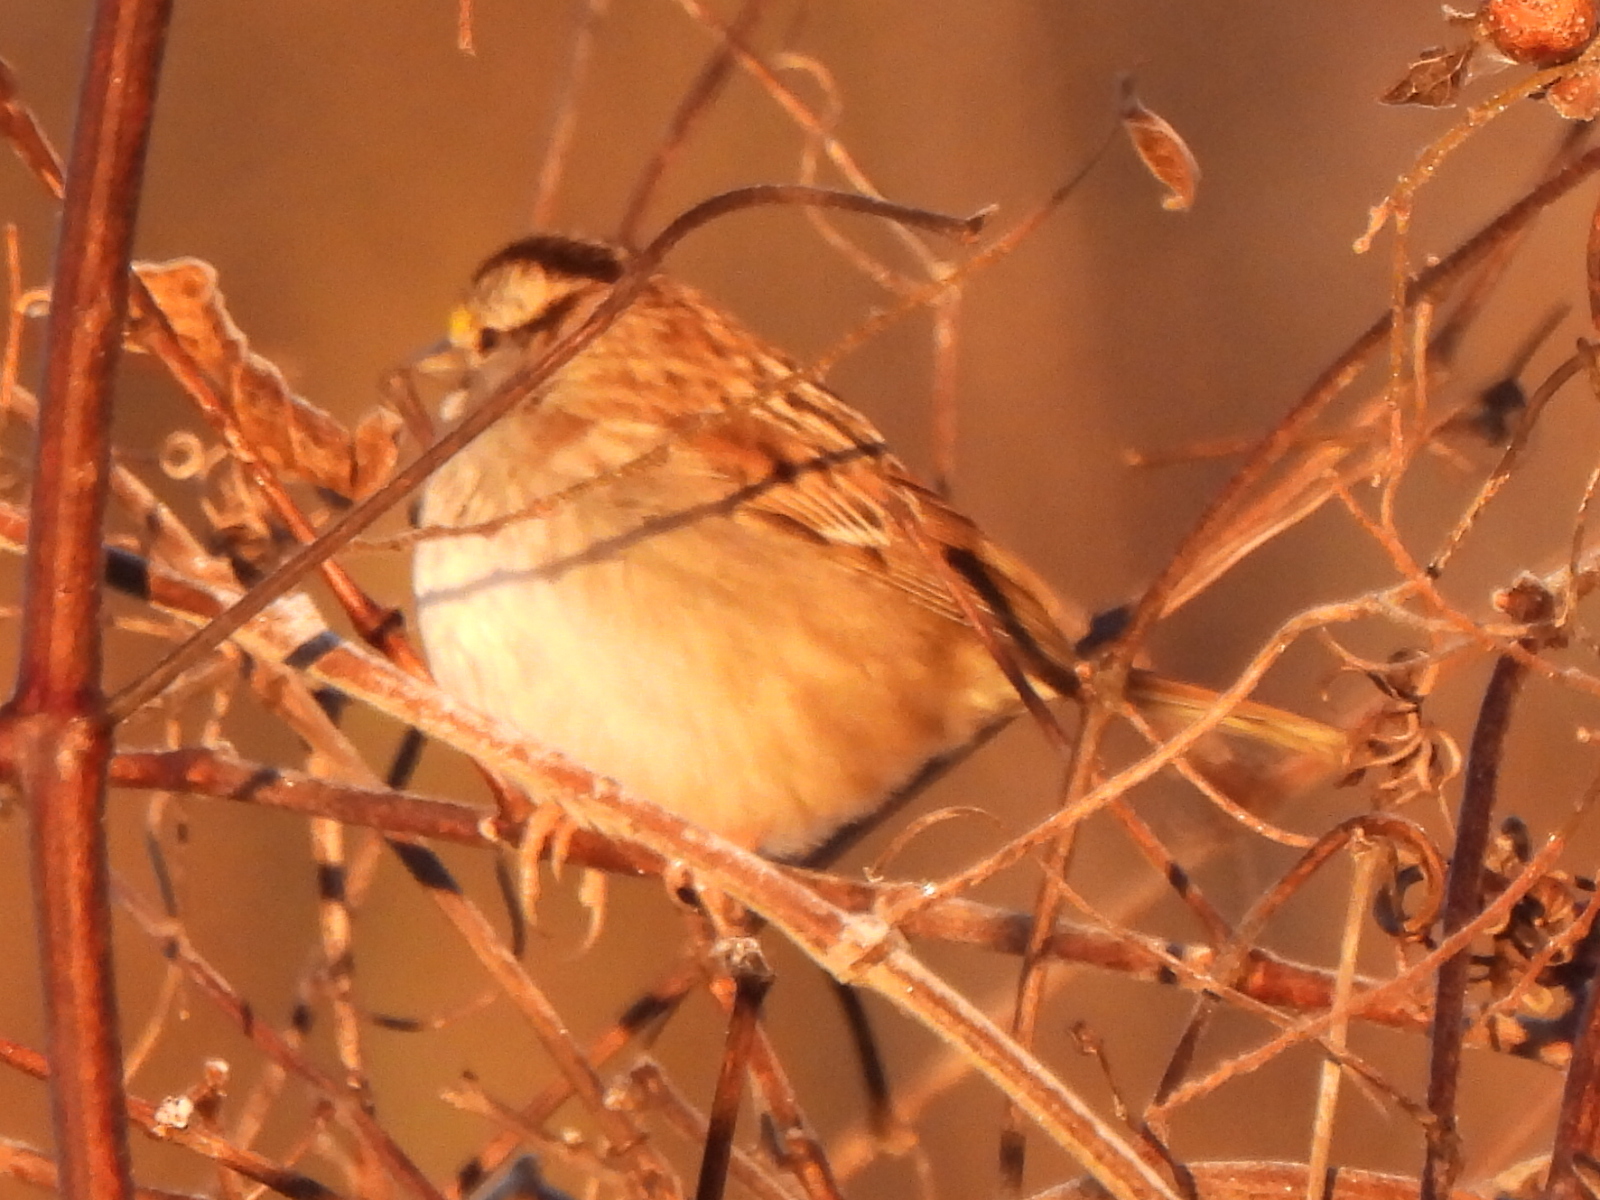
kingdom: Animalia
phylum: Chordata
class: Aves
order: Passeriformes
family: Passerellidae
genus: Zonotrichia
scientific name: Zonotrichia albicollis
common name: White-throated sparrow
